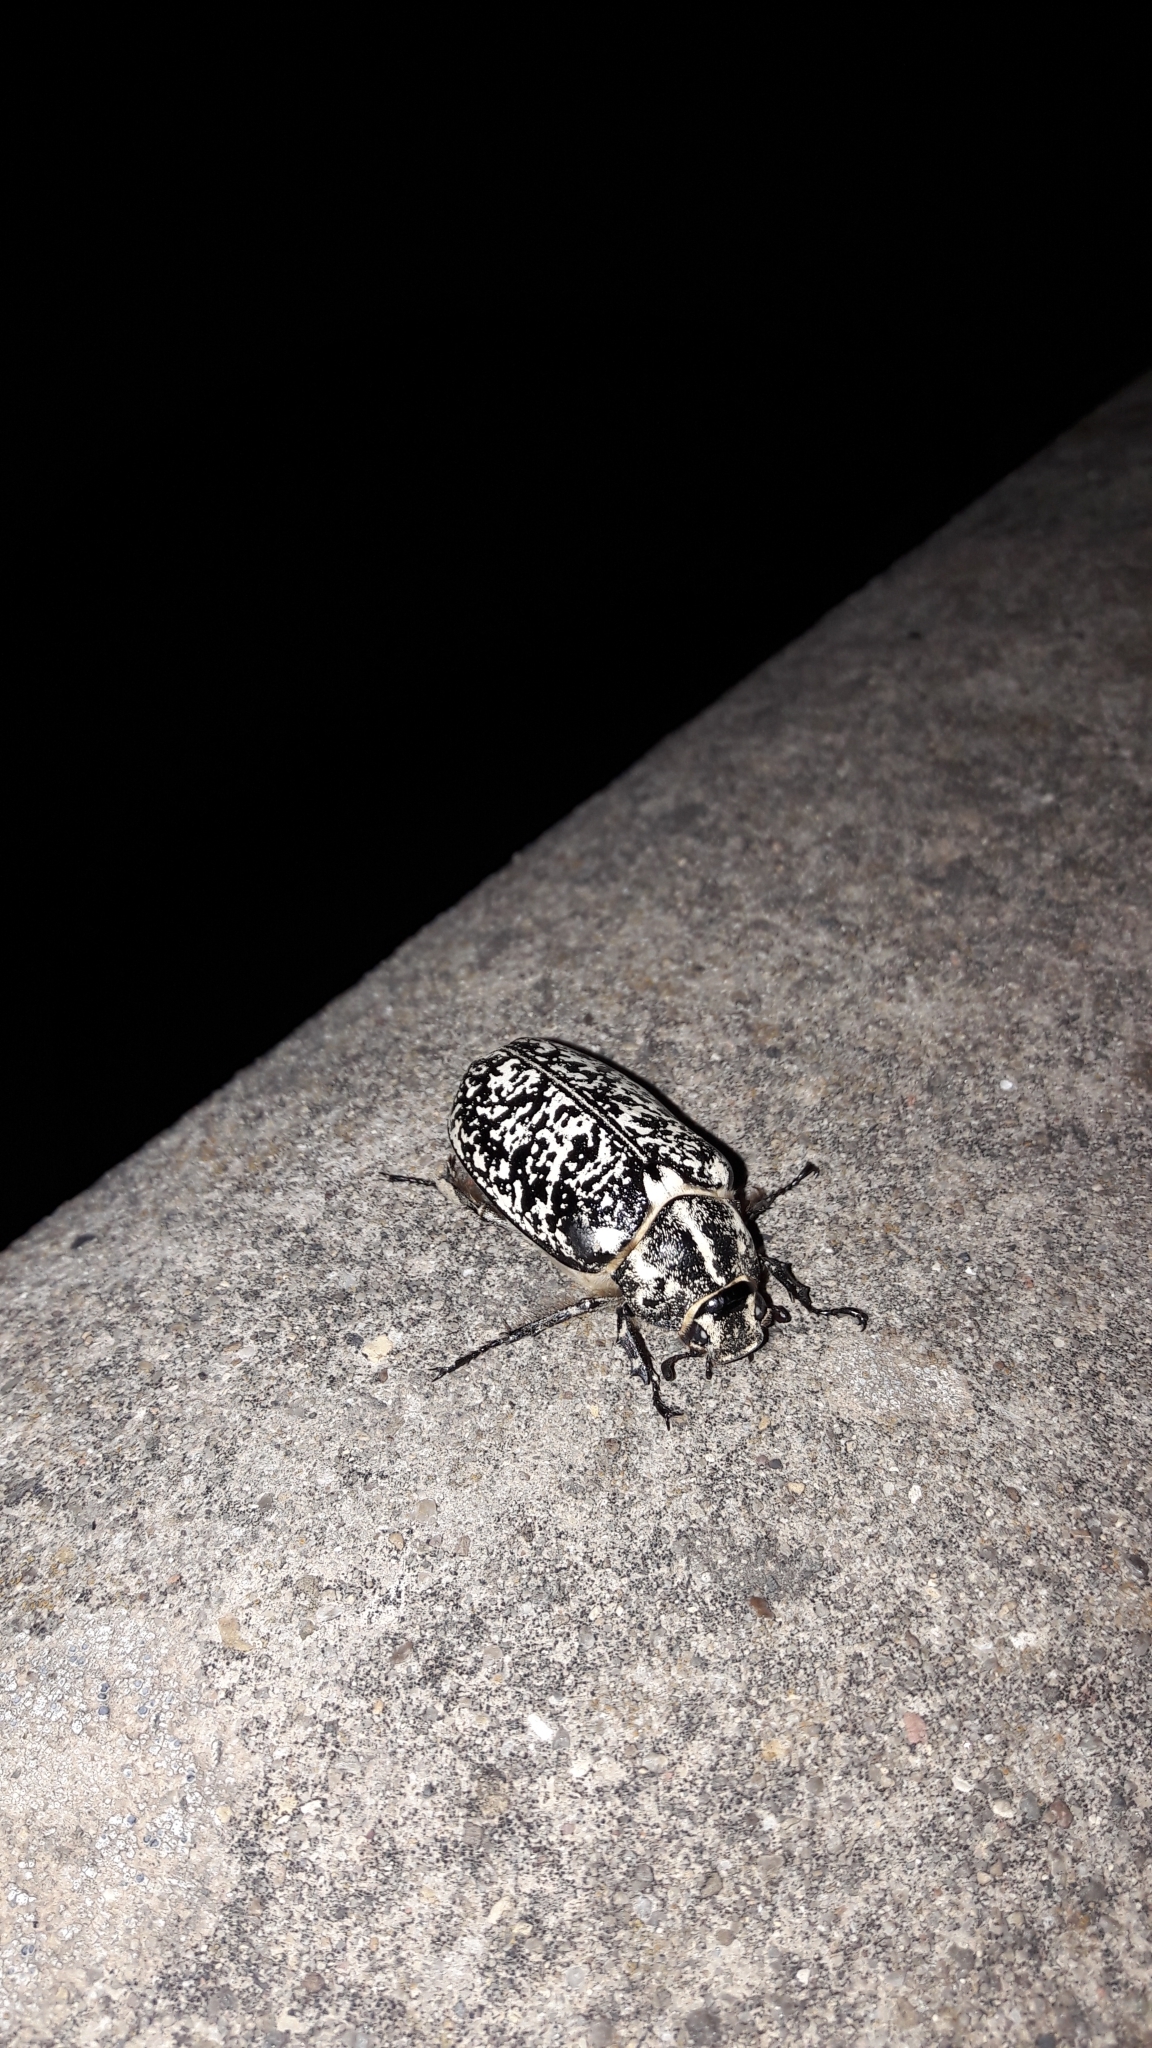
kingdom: Animalia
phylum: Arthropoda
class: Insecta
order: Coleoptera
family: Scarabaeidae
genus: Polyphylla
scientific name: Polyphylla fullo
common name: Pine chafer
